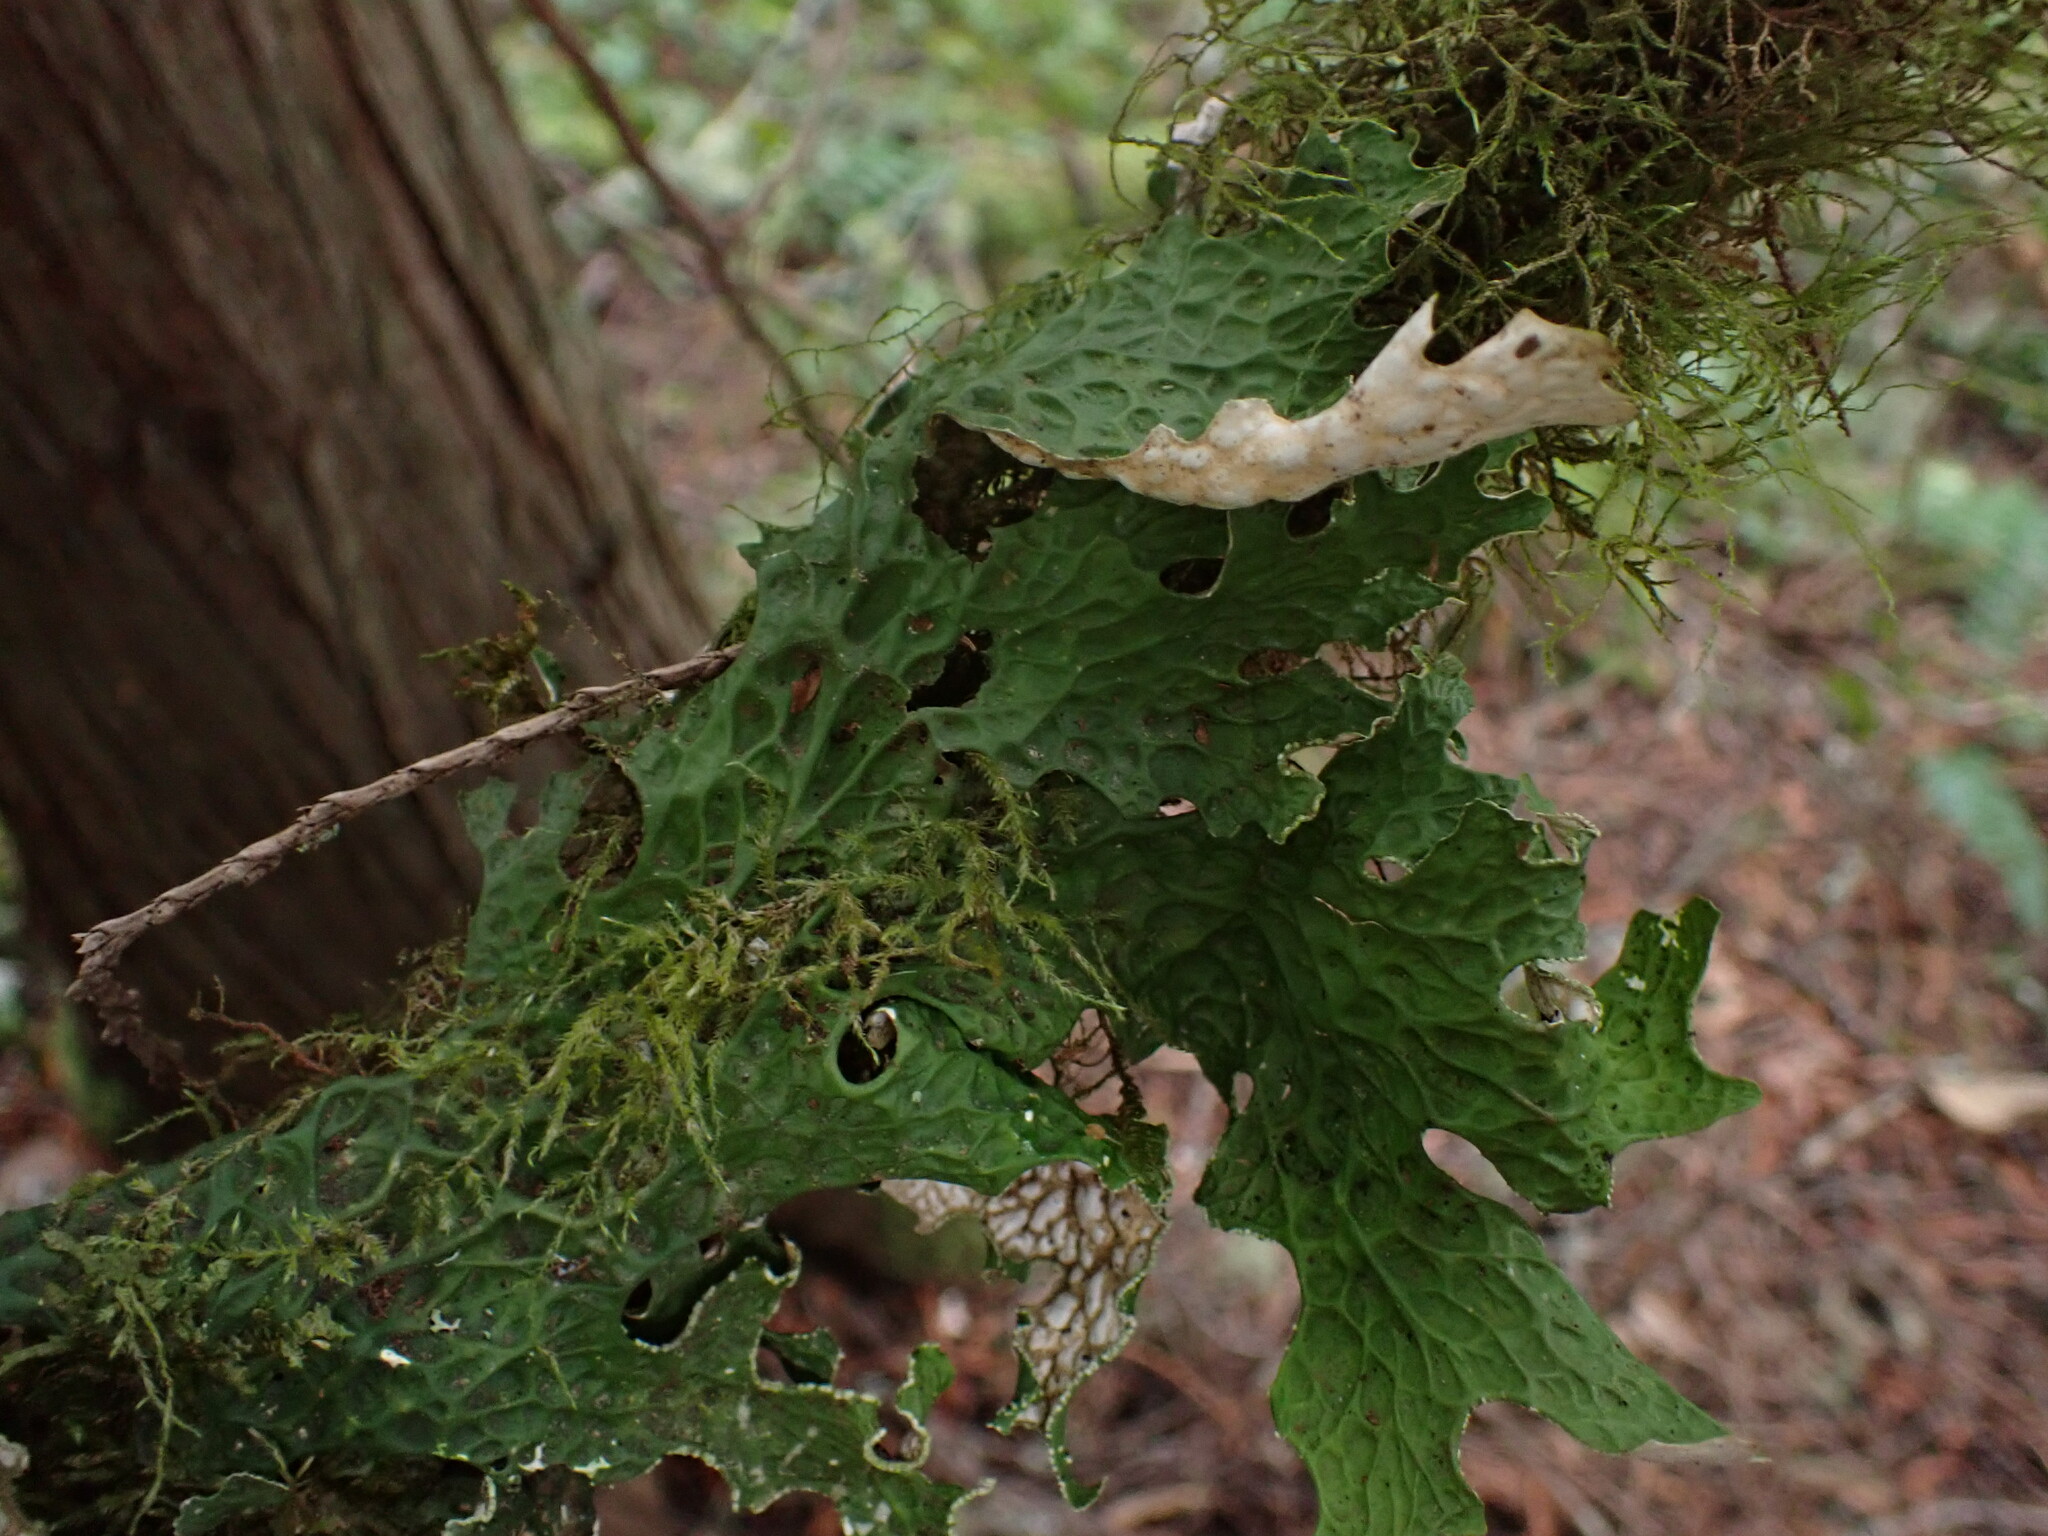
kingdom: Fungi
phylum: Ascomycota
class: Lecanoromycetes
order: Peltigerales
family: Lobariaceae
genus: Lobaria
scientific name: Lobaria pulmonaria
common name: Lungwort
